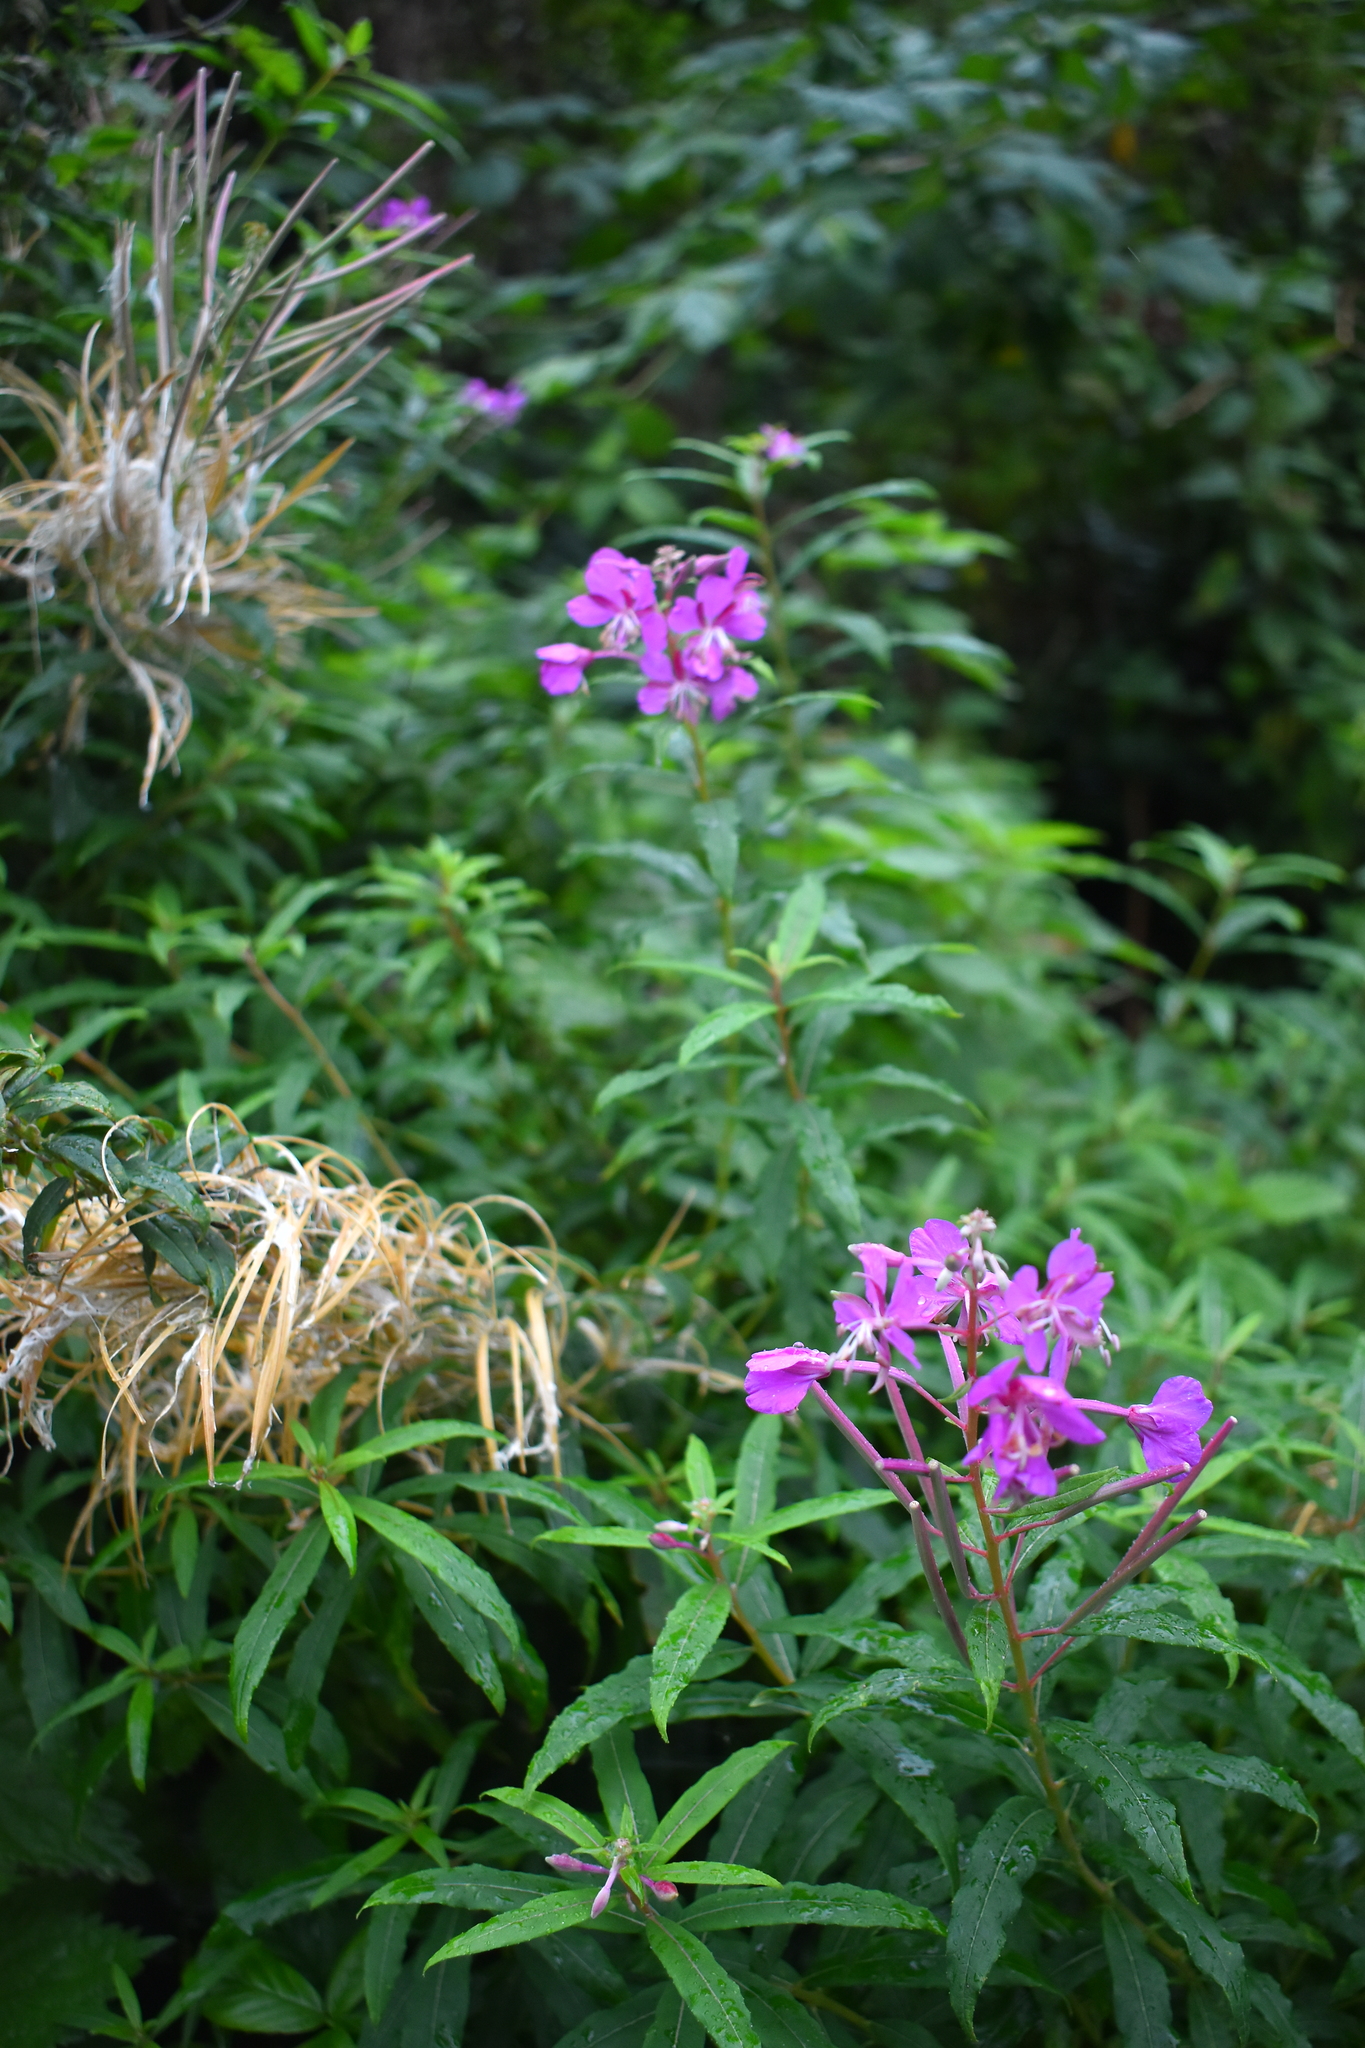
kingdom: Plantae
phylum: Tracheophyta
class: Magnoliopsida
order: Myrtales
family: Onagraceae
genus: Chamaenerion
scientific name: Chamaenerion angustifolium
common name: Fireweed
